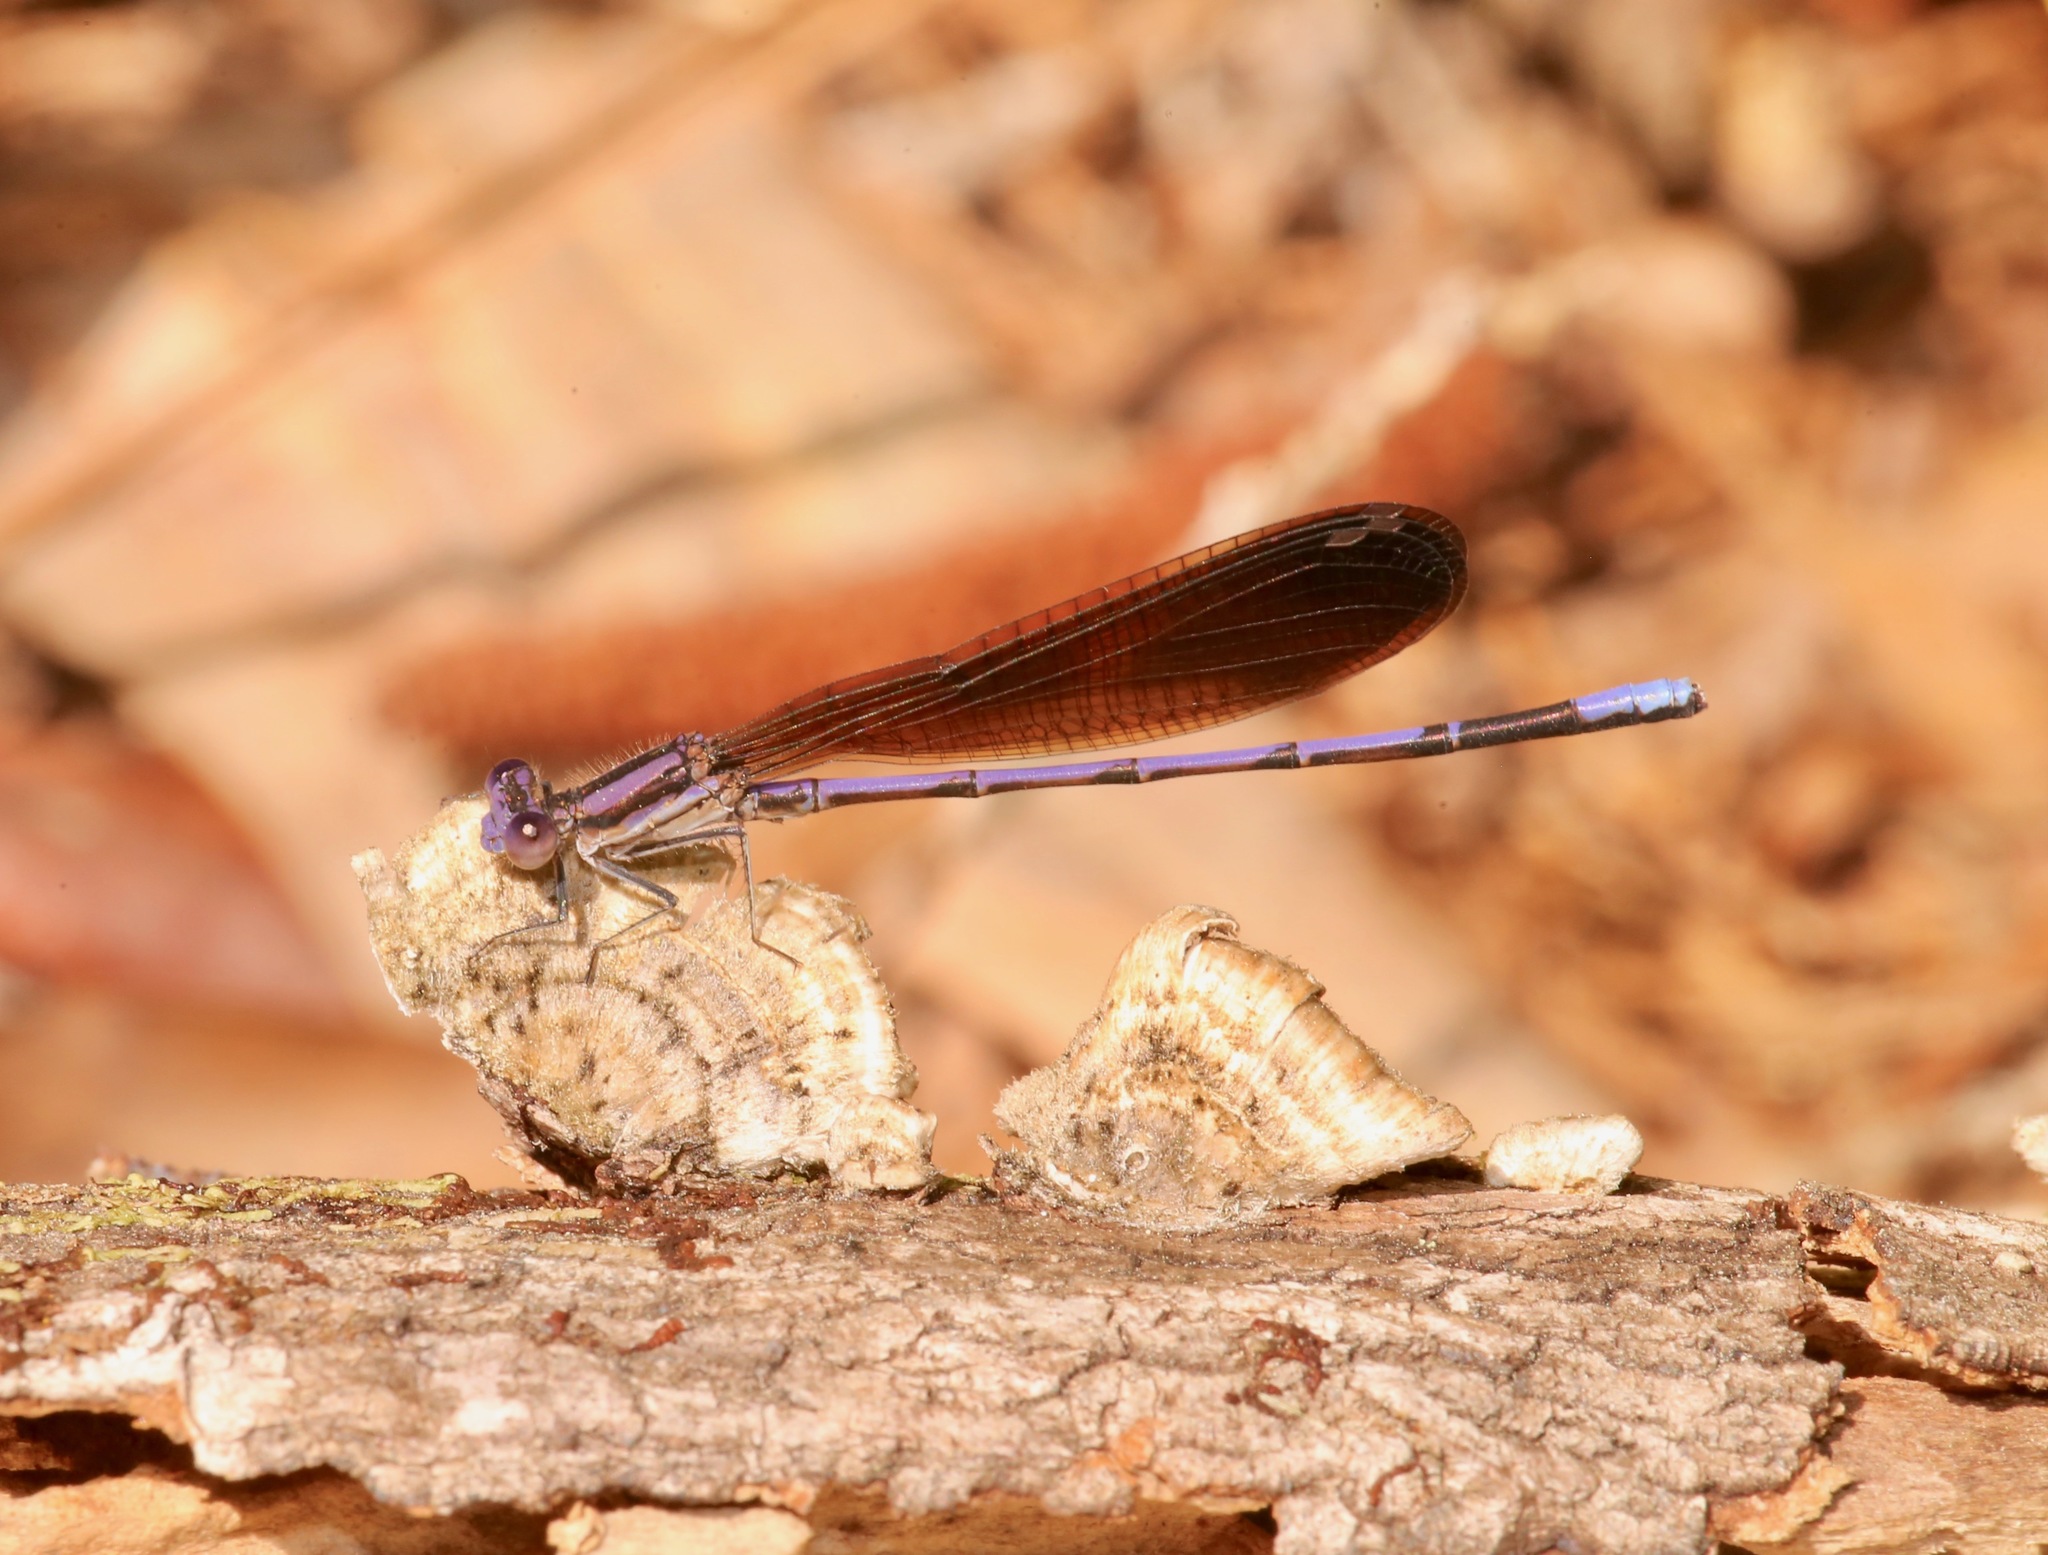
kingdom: Animalia
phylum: Arthropoda
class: Insecta
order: Odonata
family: Coenagrionidae
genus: Argia
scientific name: Argia fumipennis
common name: Variable dancer
